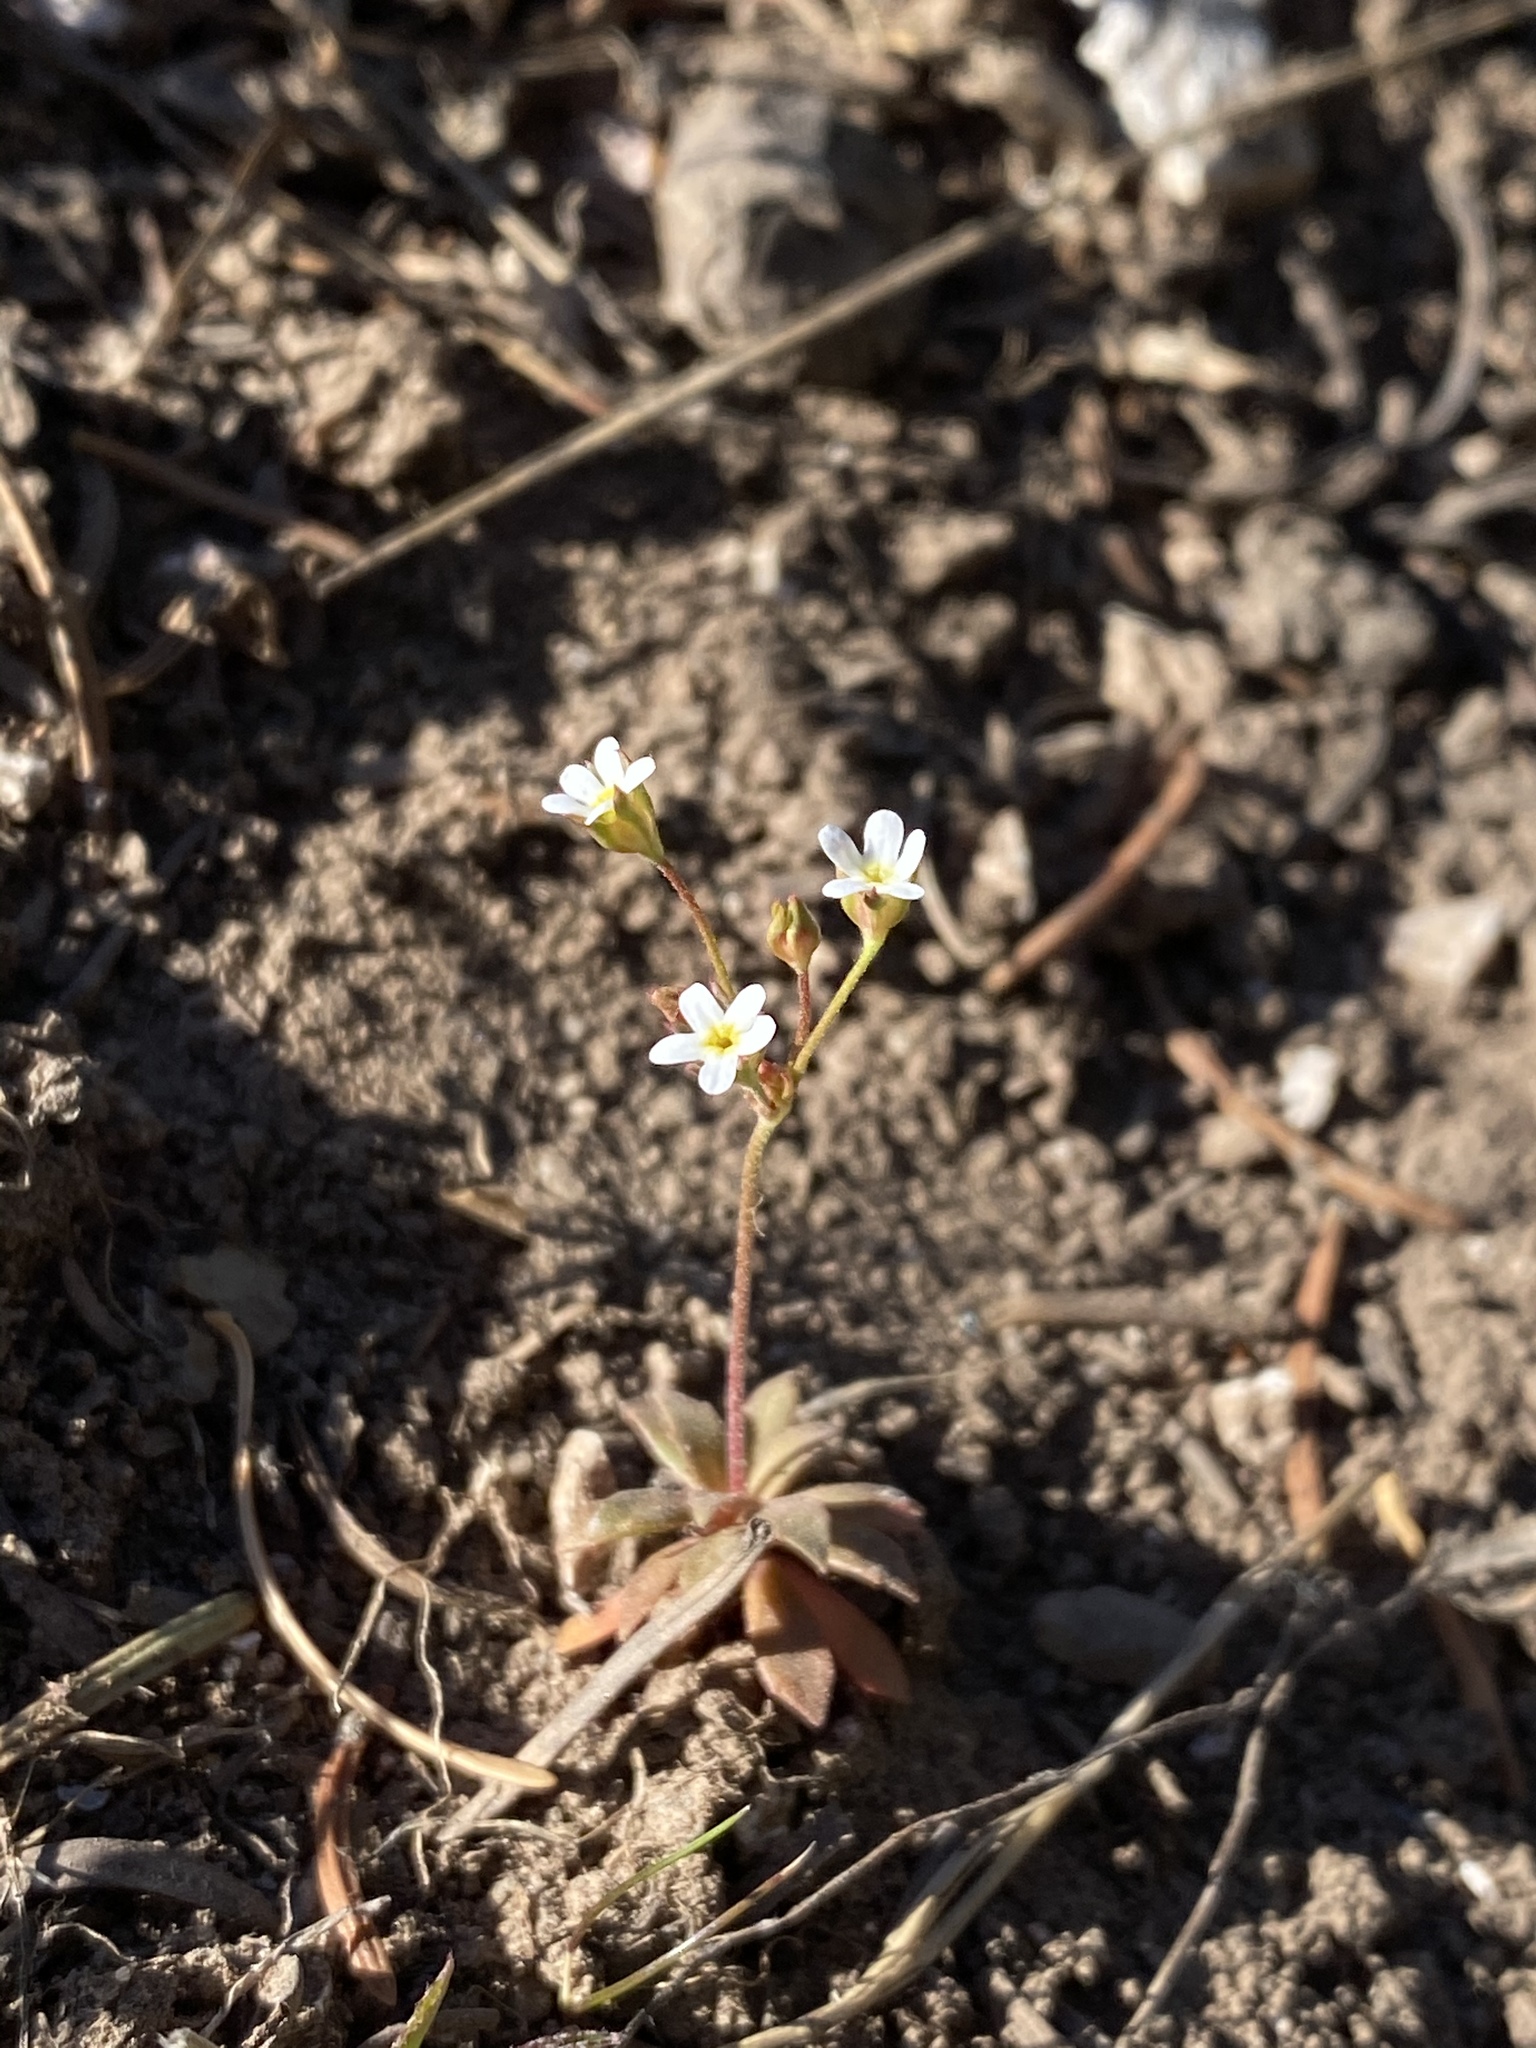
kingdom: Plantae
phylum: Tracheophyta
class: Magnoliopsida
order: Ericales
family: Primulaceae
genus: Androsace
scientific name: Androsace septentrionalis
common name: Hairy northern fairy-candelabra
